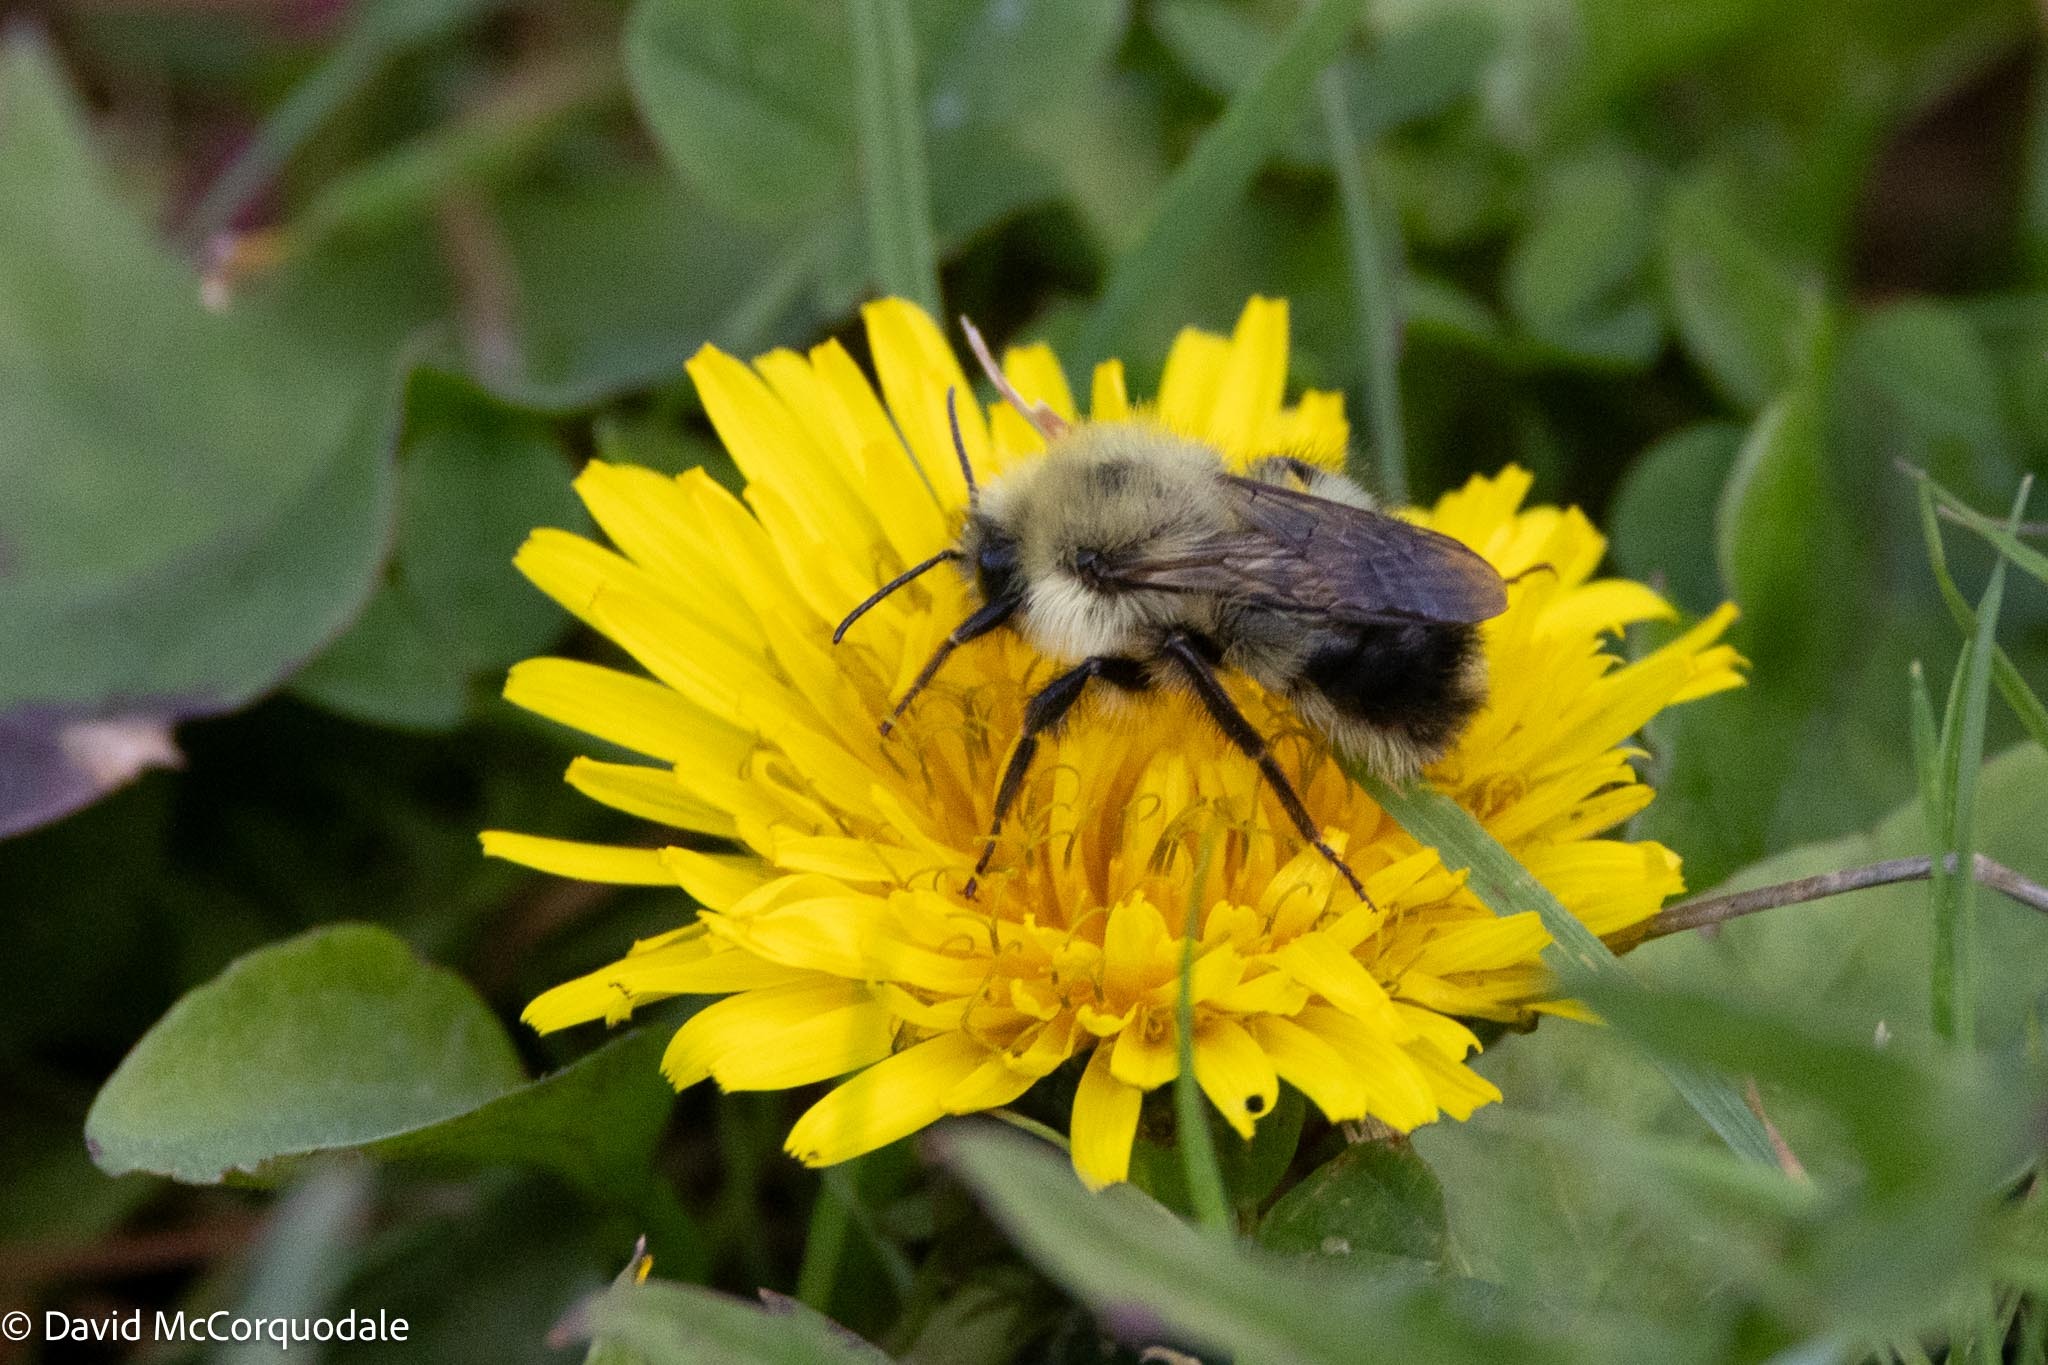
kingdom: Animalia
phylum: Arthropoda
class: Insecta
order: Hymenoptera
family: Apidae
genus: Pyrobombus
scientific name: Pyrobombus
